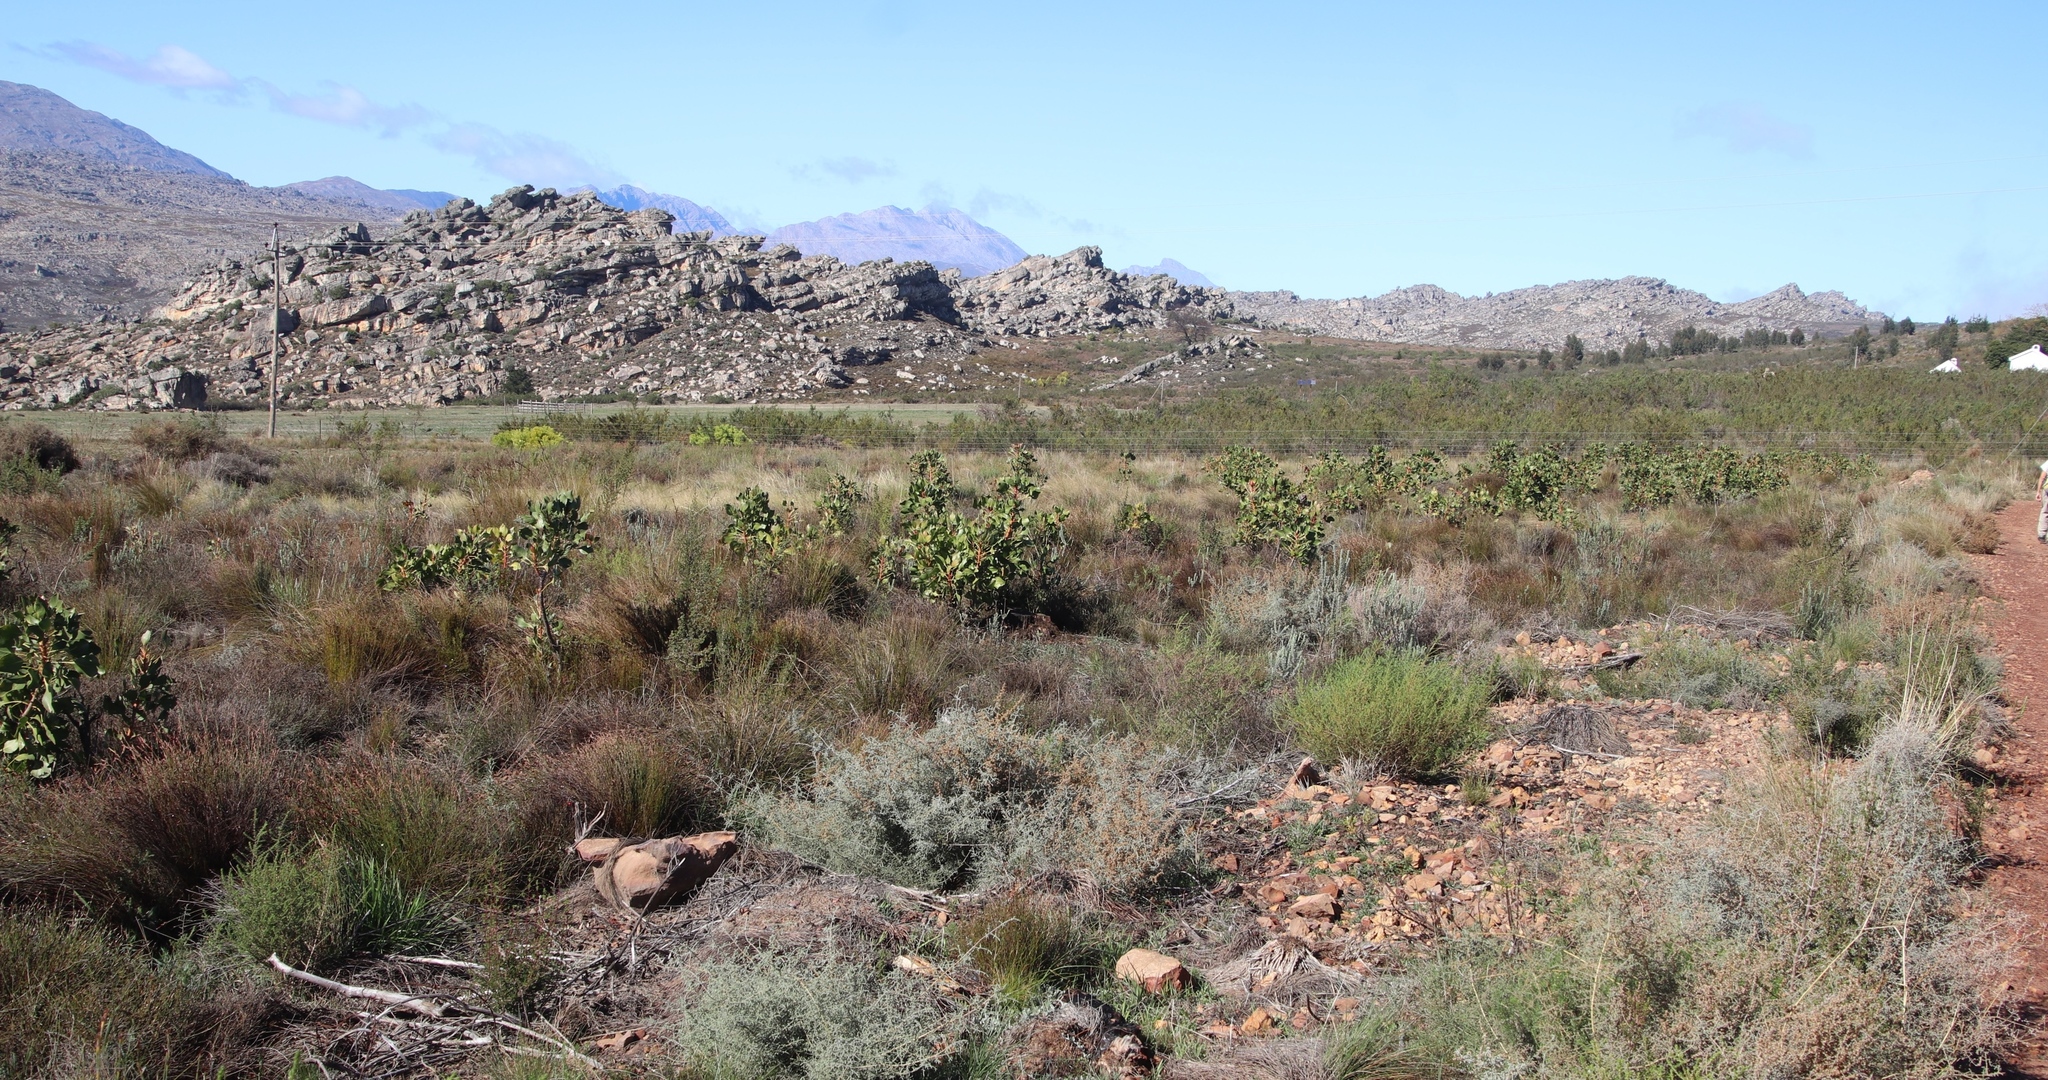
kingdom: Plantae
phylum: Tracheophyta
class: Magnoliopsida
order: Proteales
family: Proteaceae
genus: Protea
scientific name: Protea cynaroides
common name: King protea
